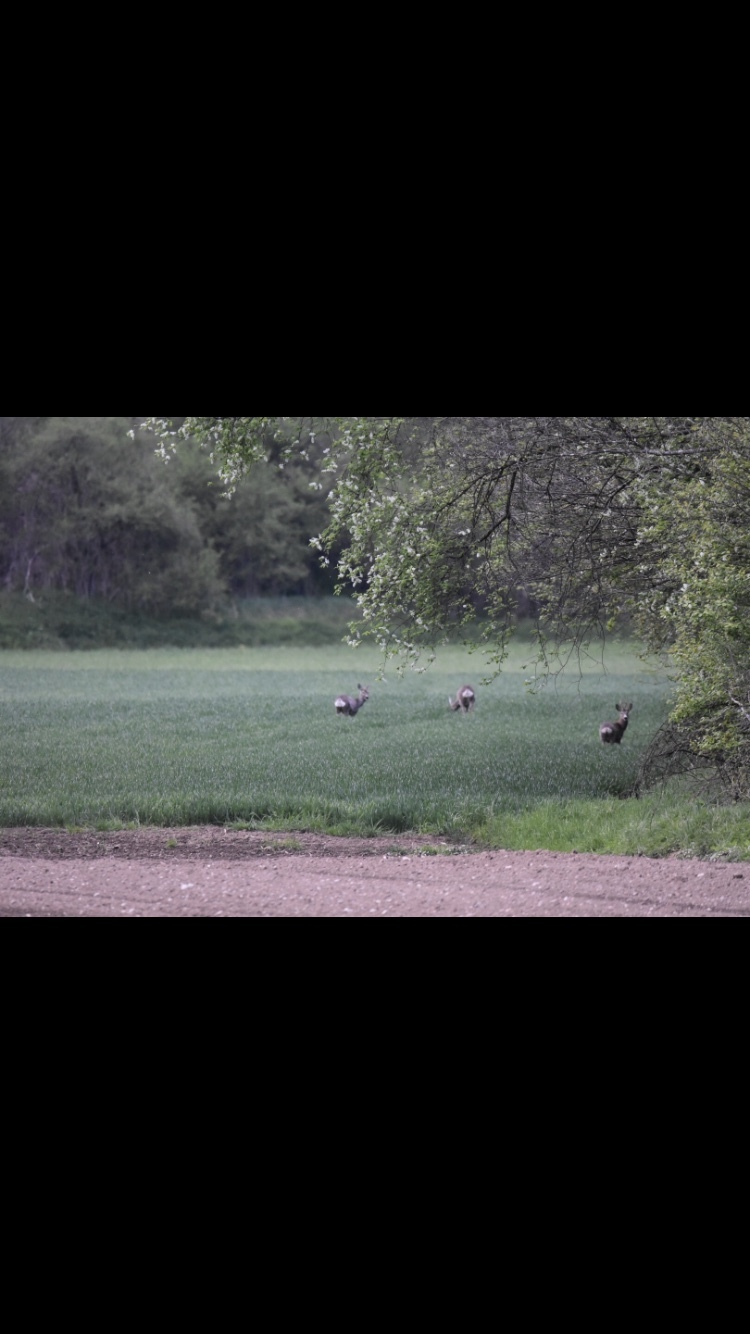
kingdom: Animalia
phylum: Chordata
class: Mammalia
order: Artiodactyla
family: Cervidae
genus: Capreolus
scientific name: Capreolus capreolus
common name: Western roe deer
